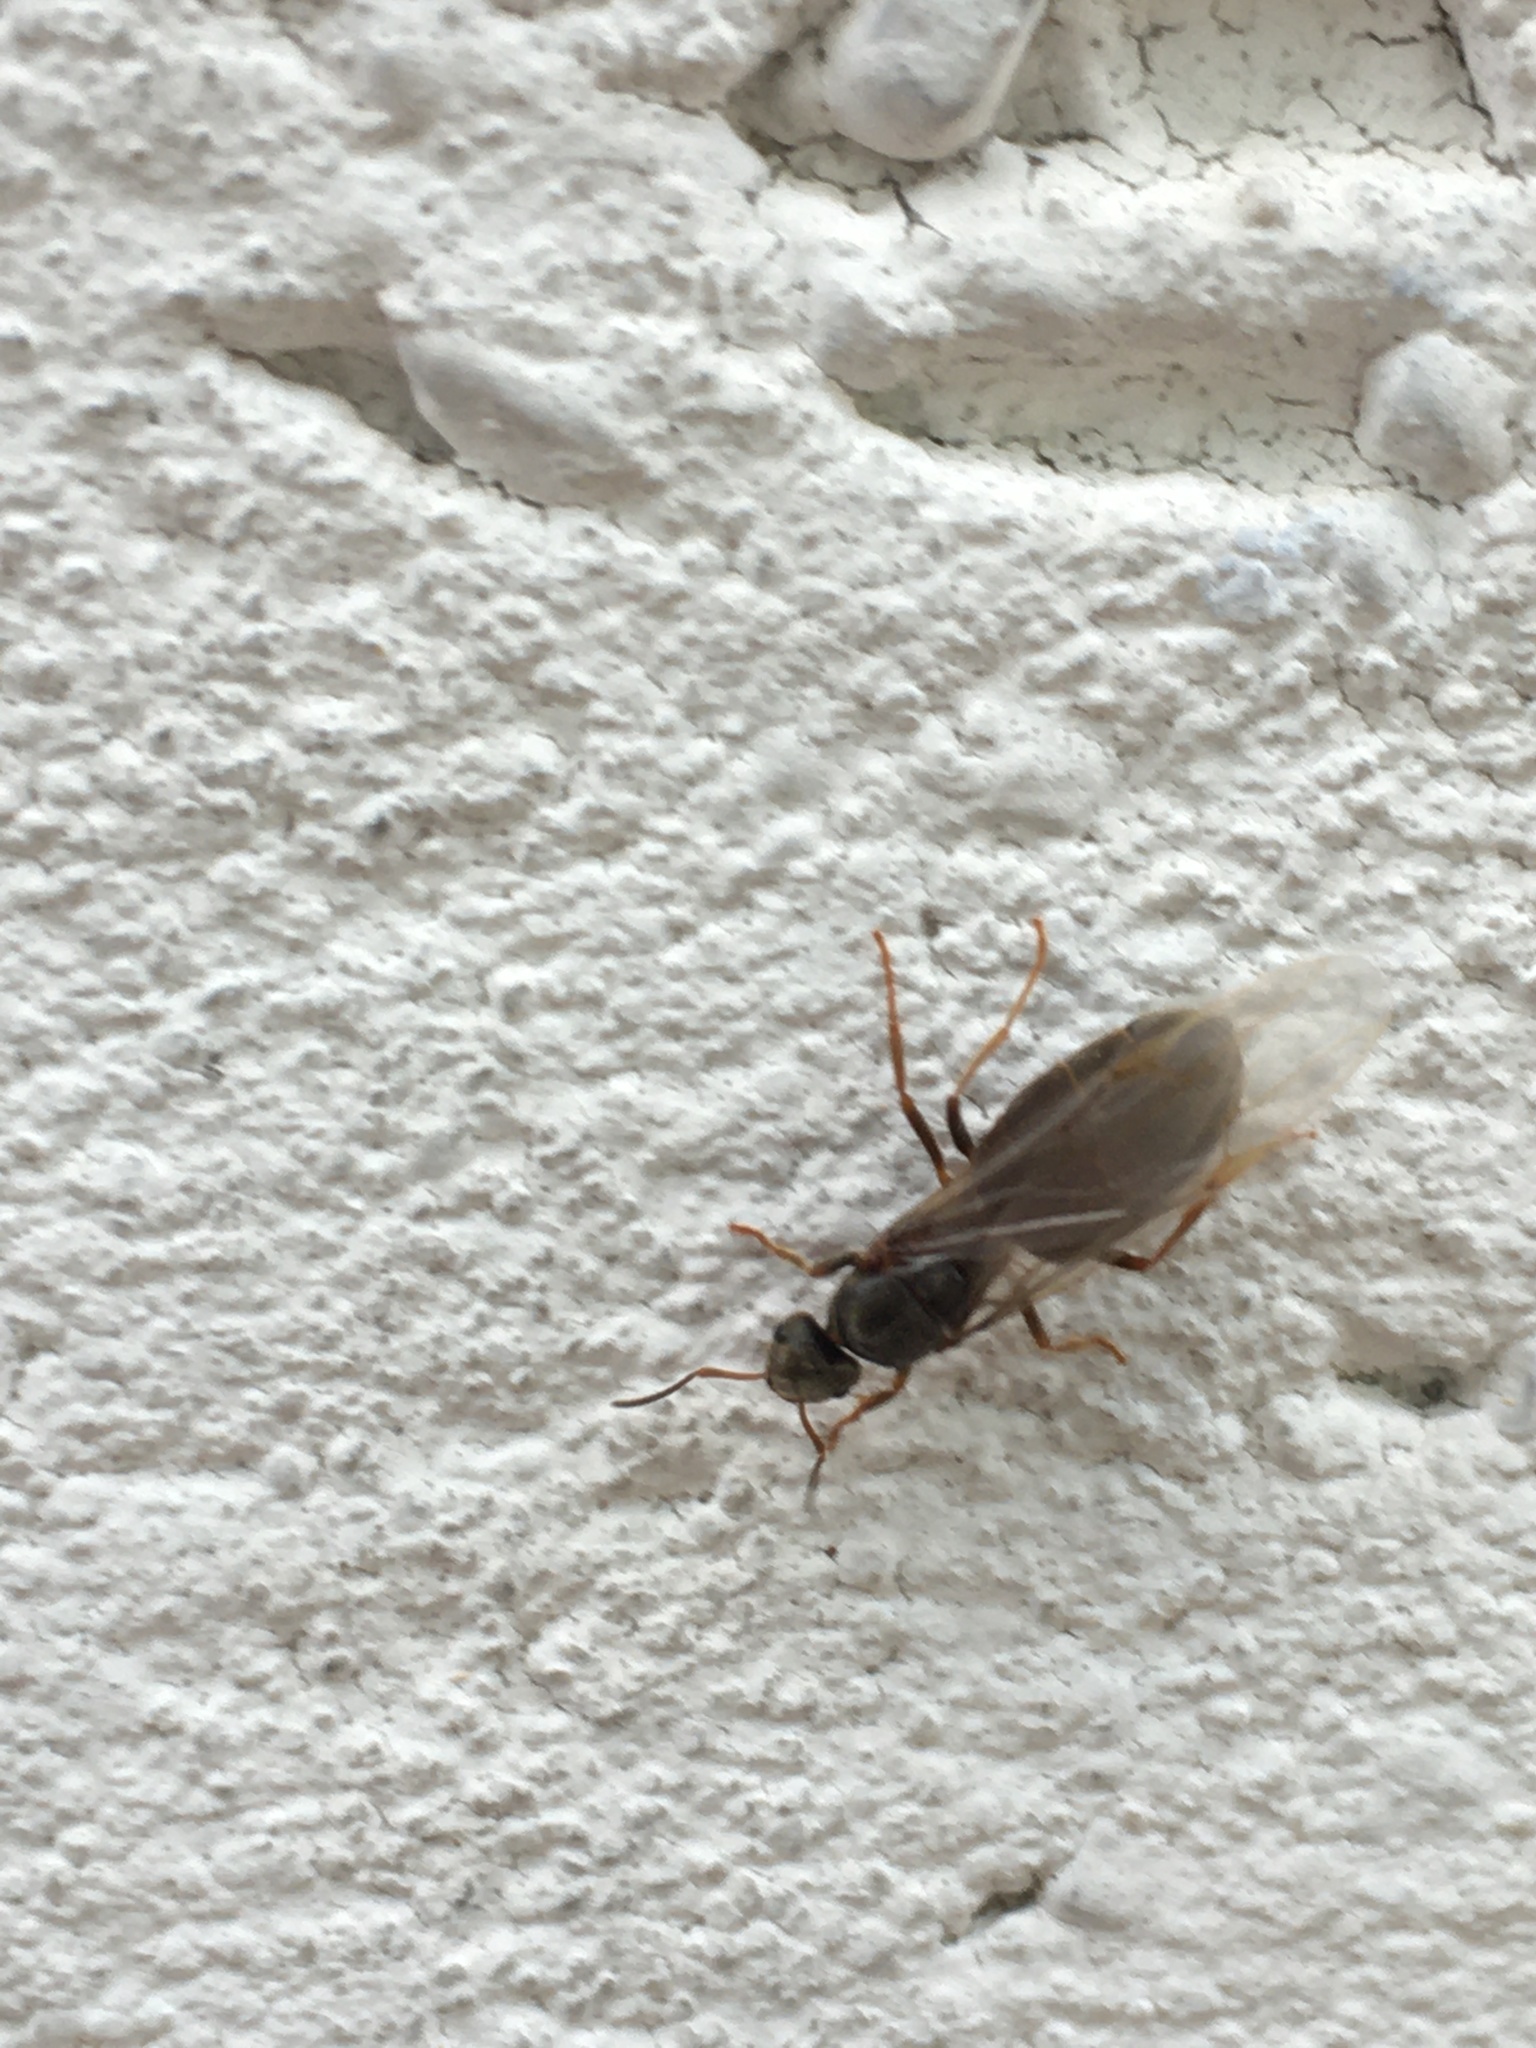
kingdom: Animalia
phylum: Arthropoda
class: Insecta
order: Hymenoptera
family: Formicidae
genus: Lasius
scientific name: Lasius
